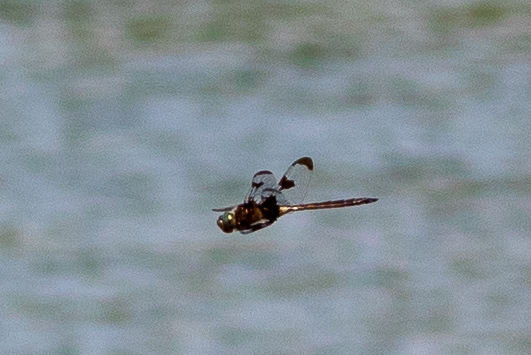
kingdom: Animalia
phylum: Arthropoda
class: Insecta
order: Odonata
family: Corduliidae
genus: Epitheca
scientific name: Epitheca princeps
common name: Prince baskettail
